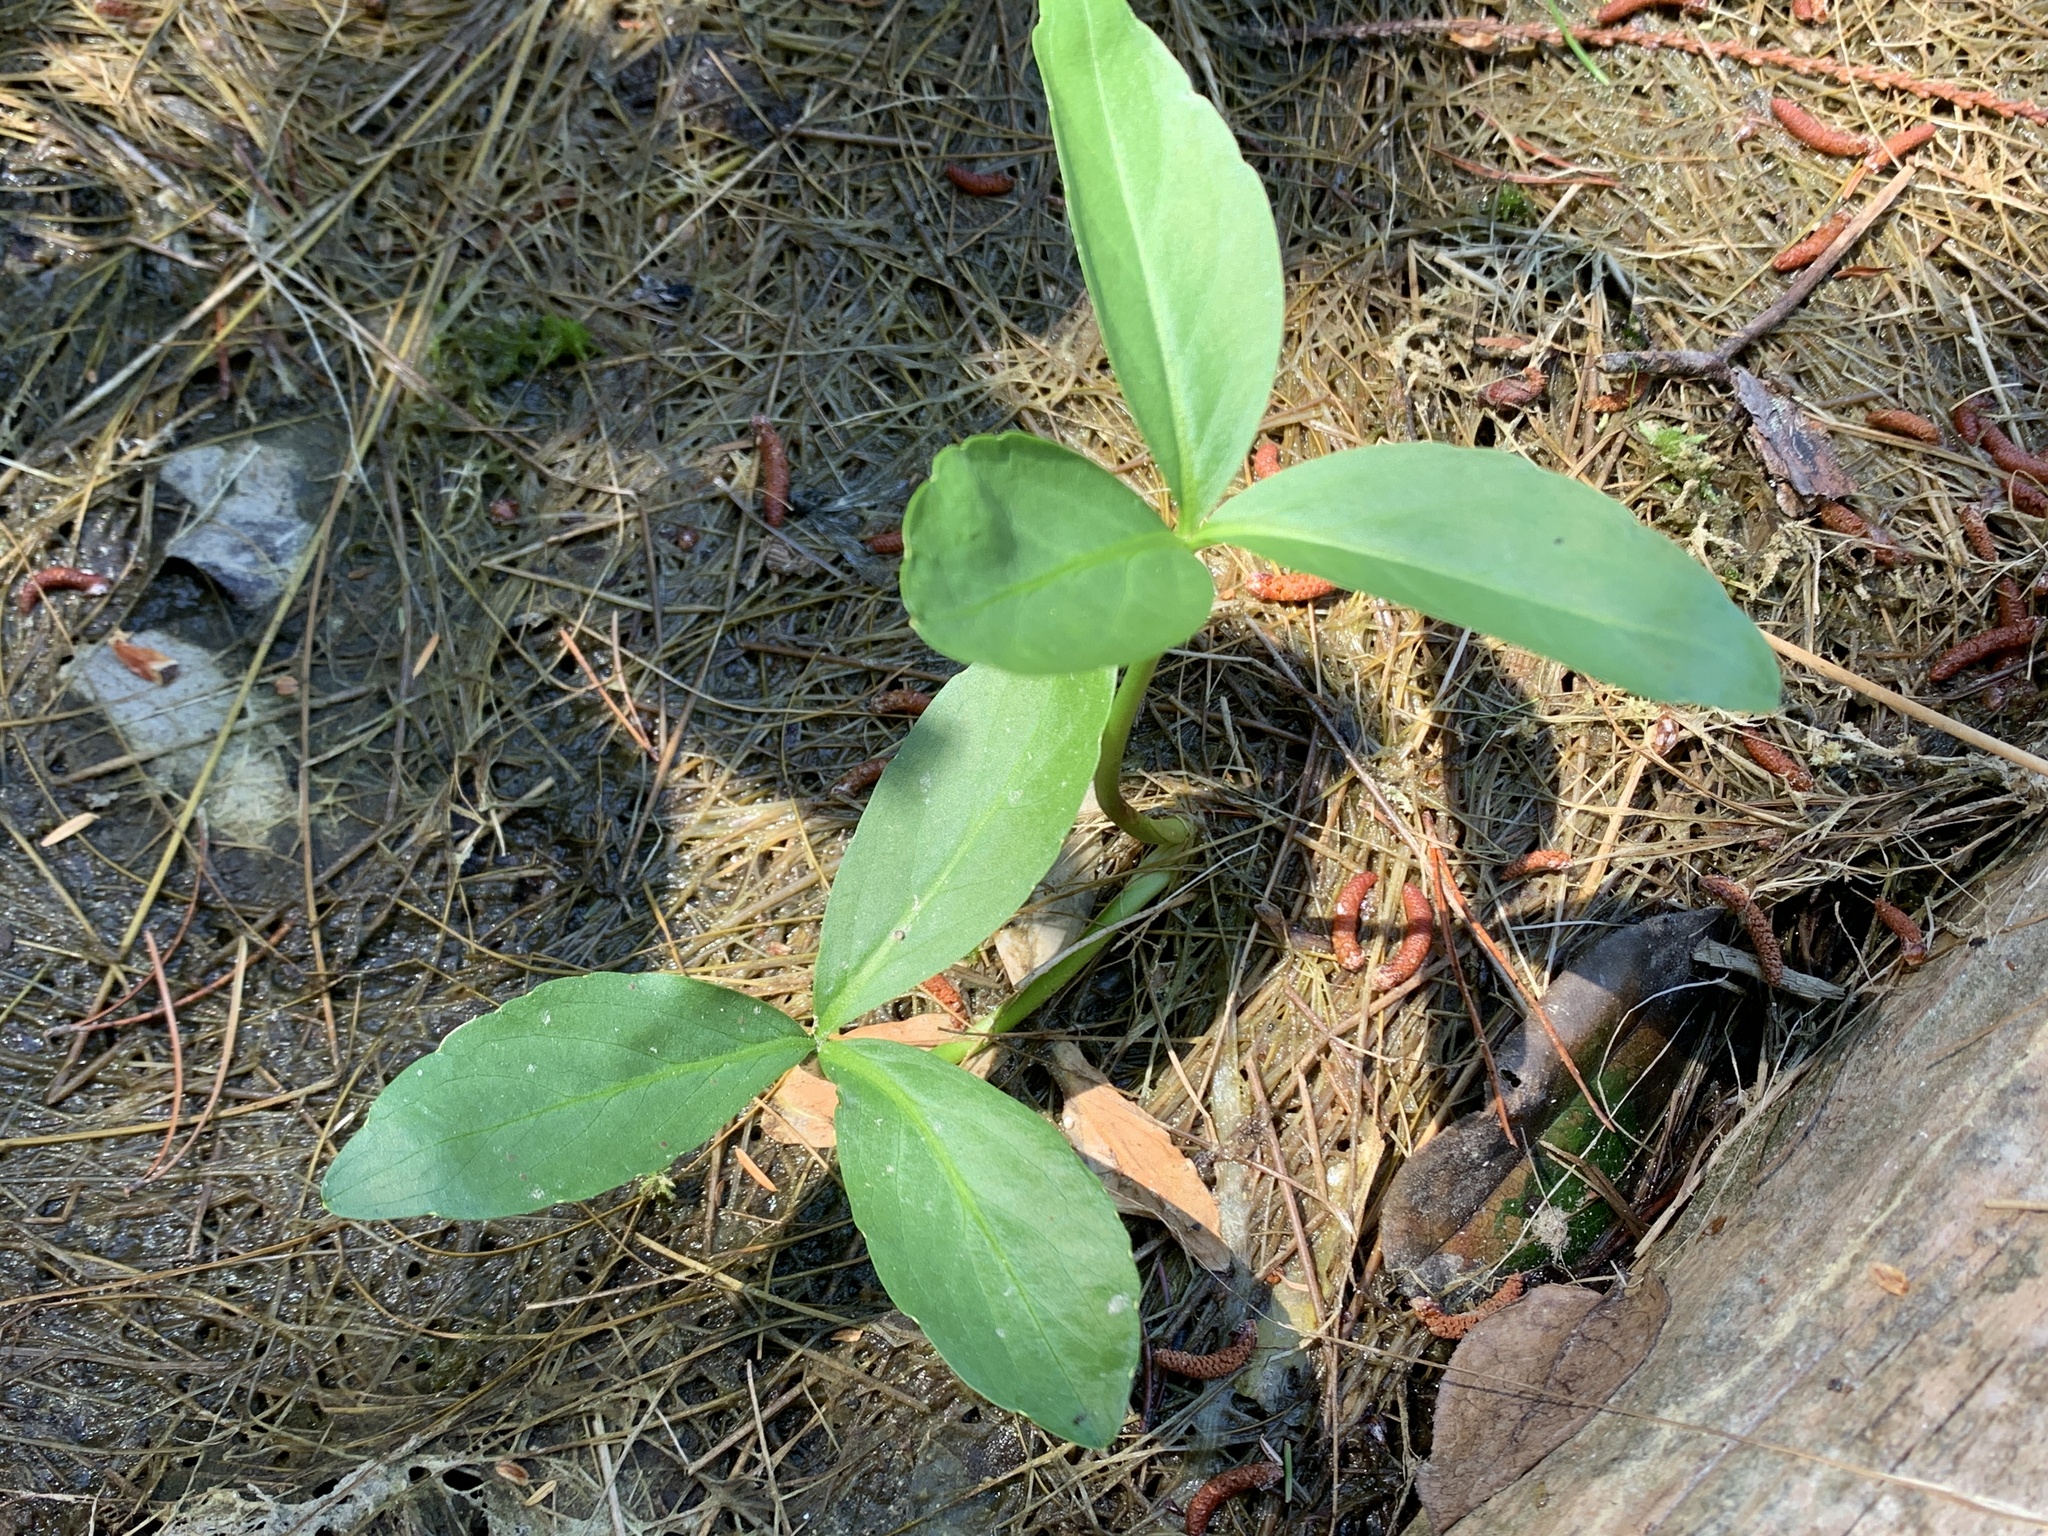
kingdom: Plantae
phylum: Tracheophyta
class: Magnoliopsida
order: Asterales
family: Menyanthaceae
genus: Menyanthes
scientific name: Menyanthes trifoliata
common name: Bogbean
